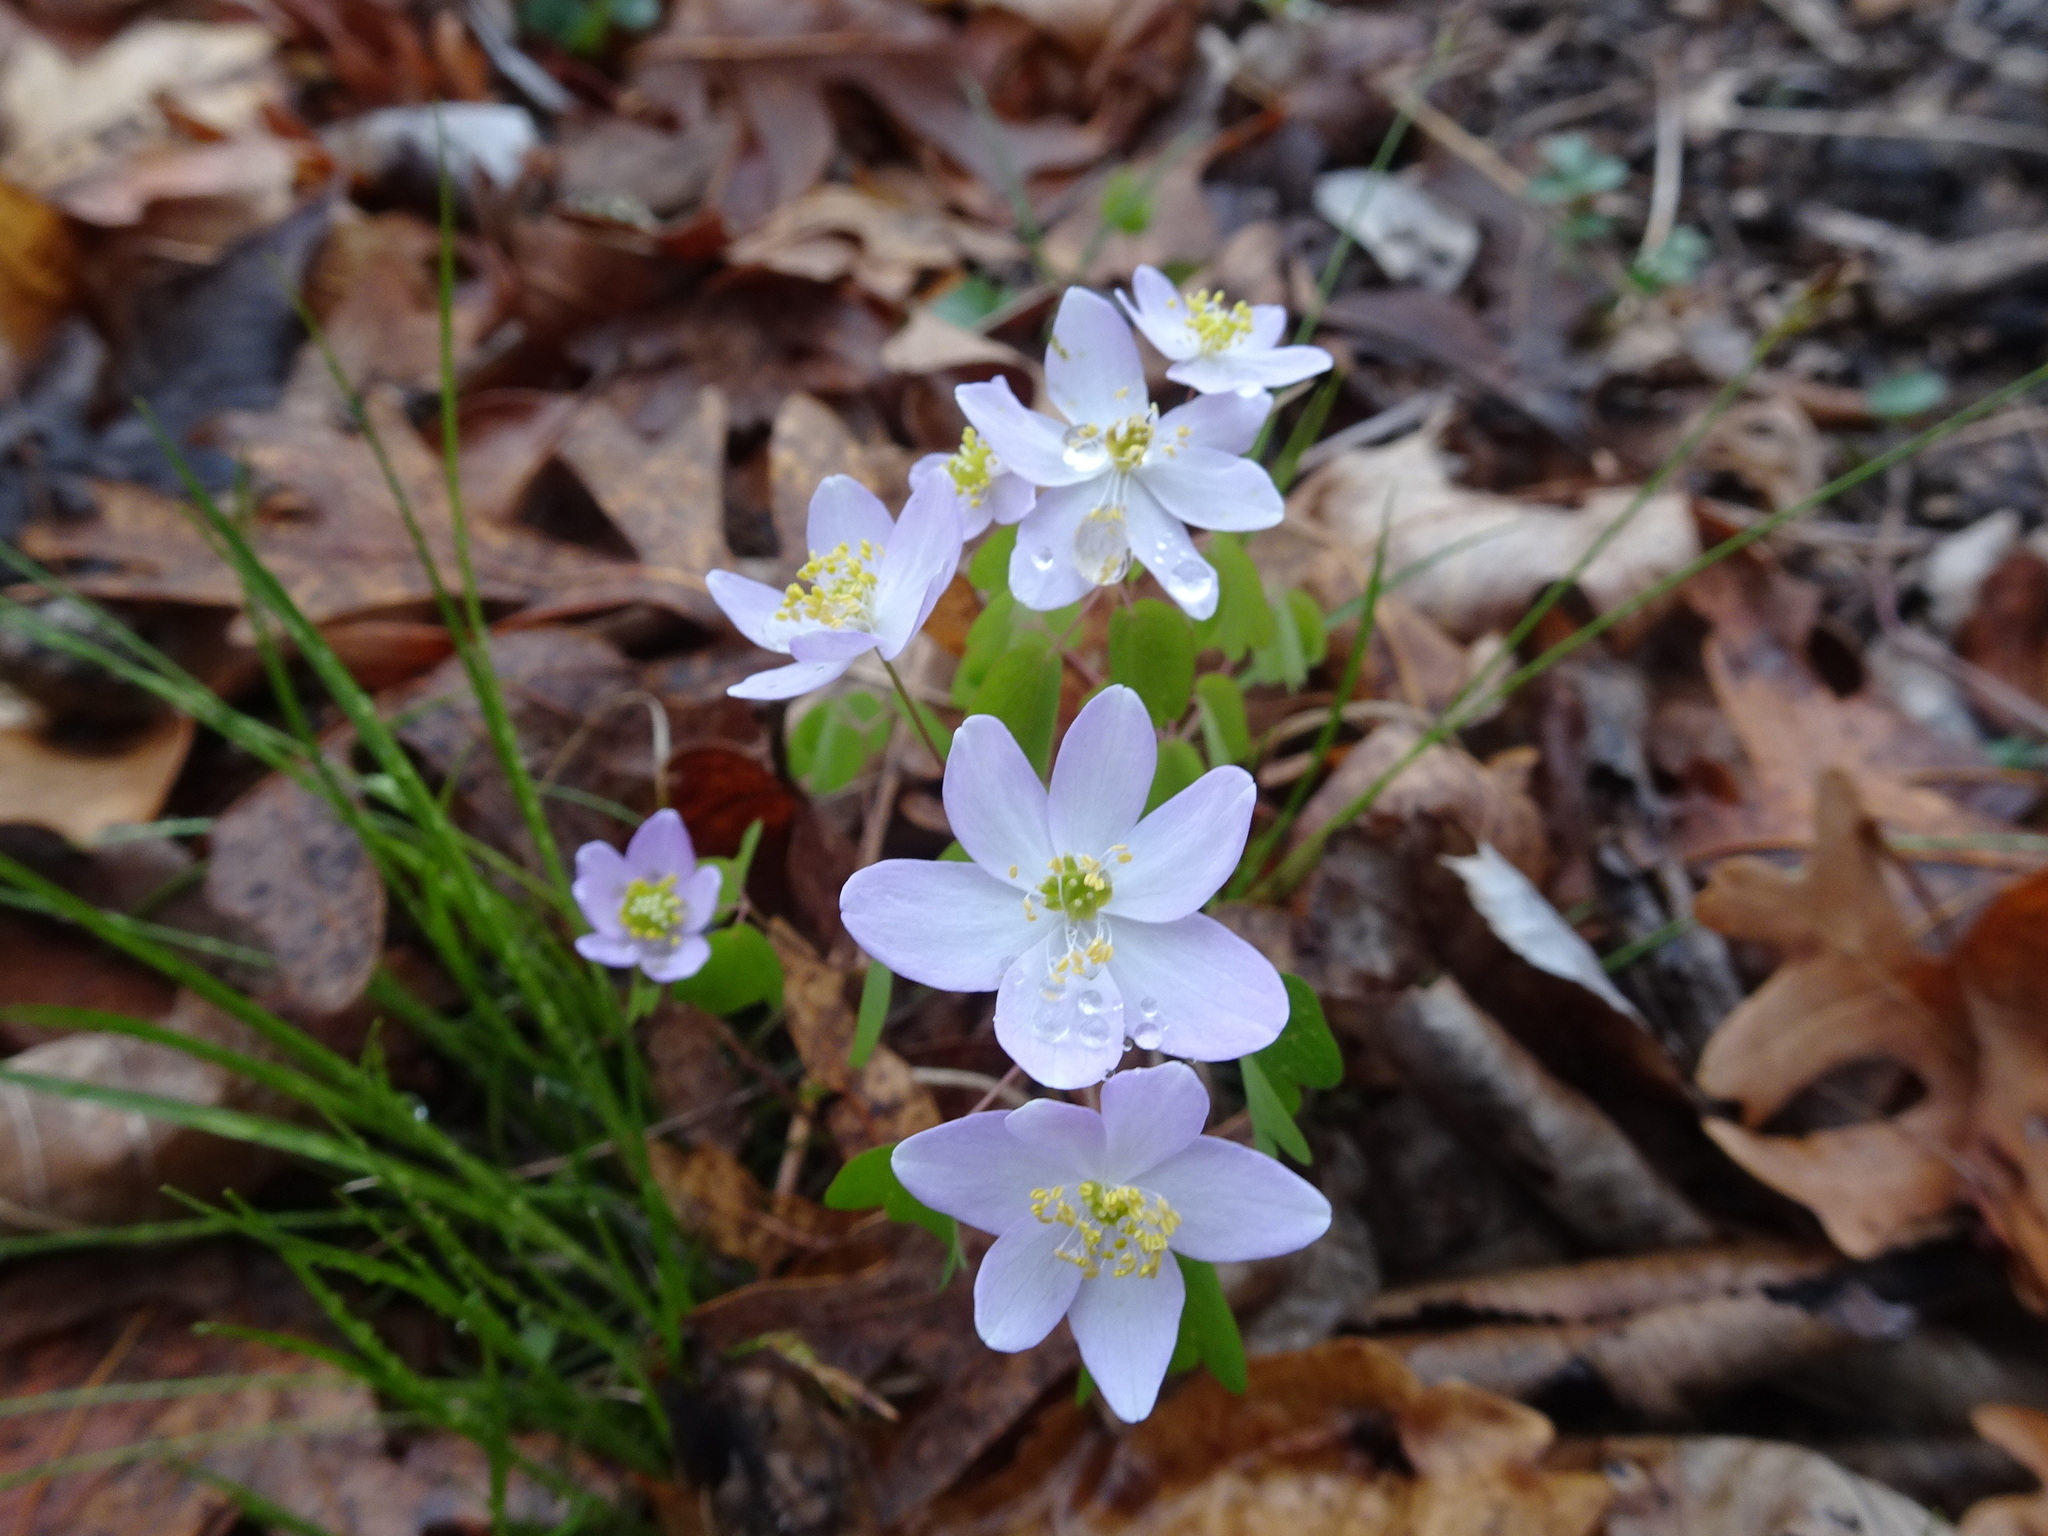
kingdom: Plantae
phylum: Tracheophyta
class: Magnoliopsida
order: Ranunculales
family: Ranunculaceae
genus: Thalictrum
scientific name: Thalictrum thalictroides
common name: Rue-anemone
